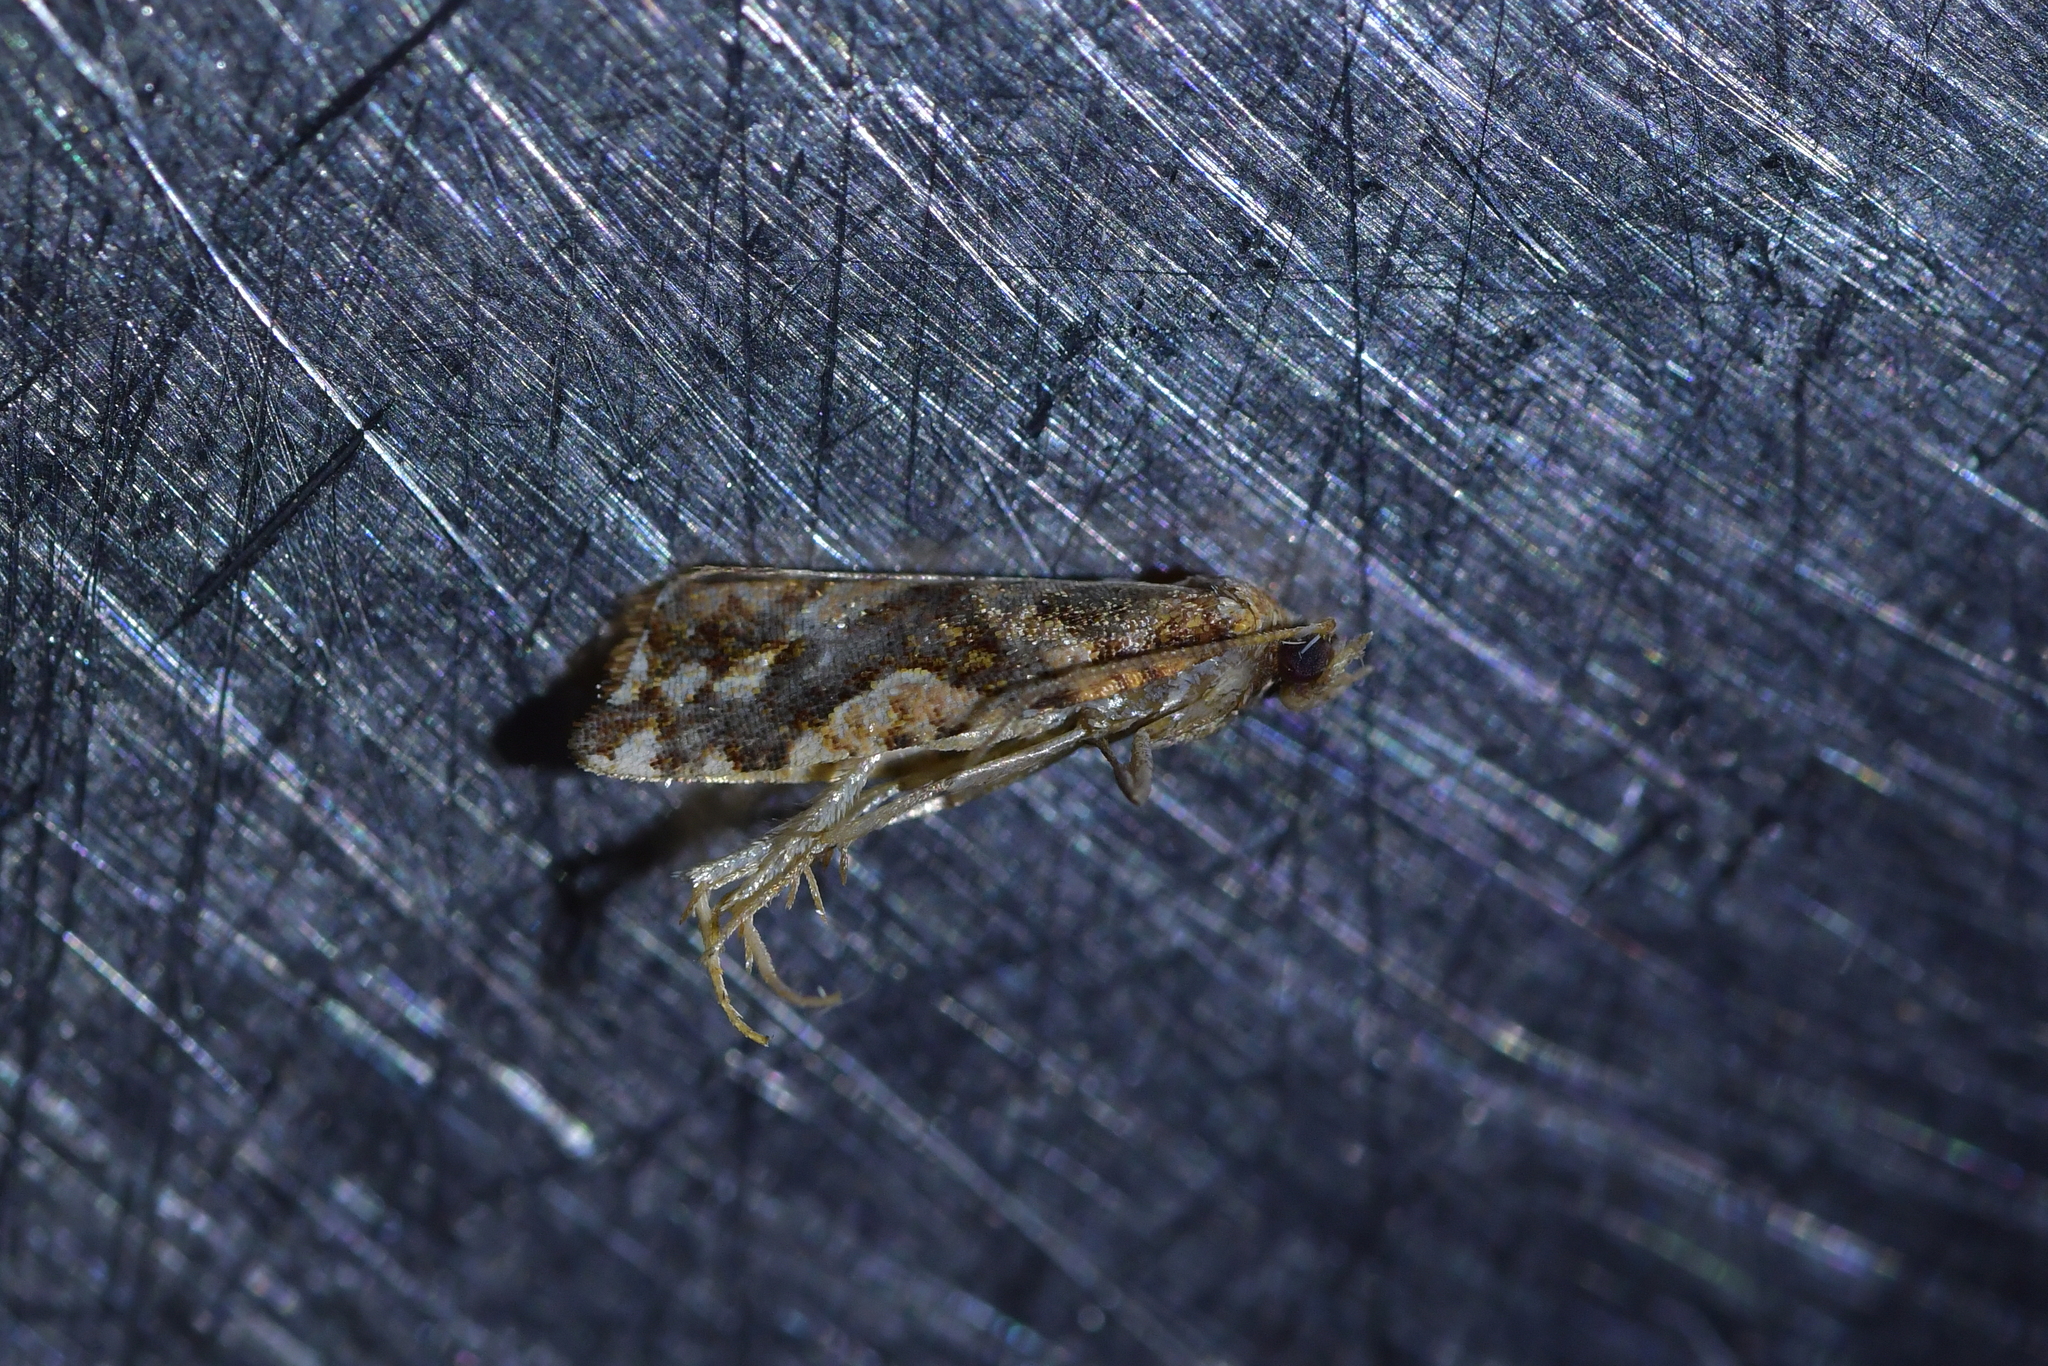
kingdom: Animalia
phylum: Arthropoda
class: Insecta
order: Lepidoptera
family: Tortricidae
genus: Pyrgotis
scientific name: Pyrgotis arcuata
